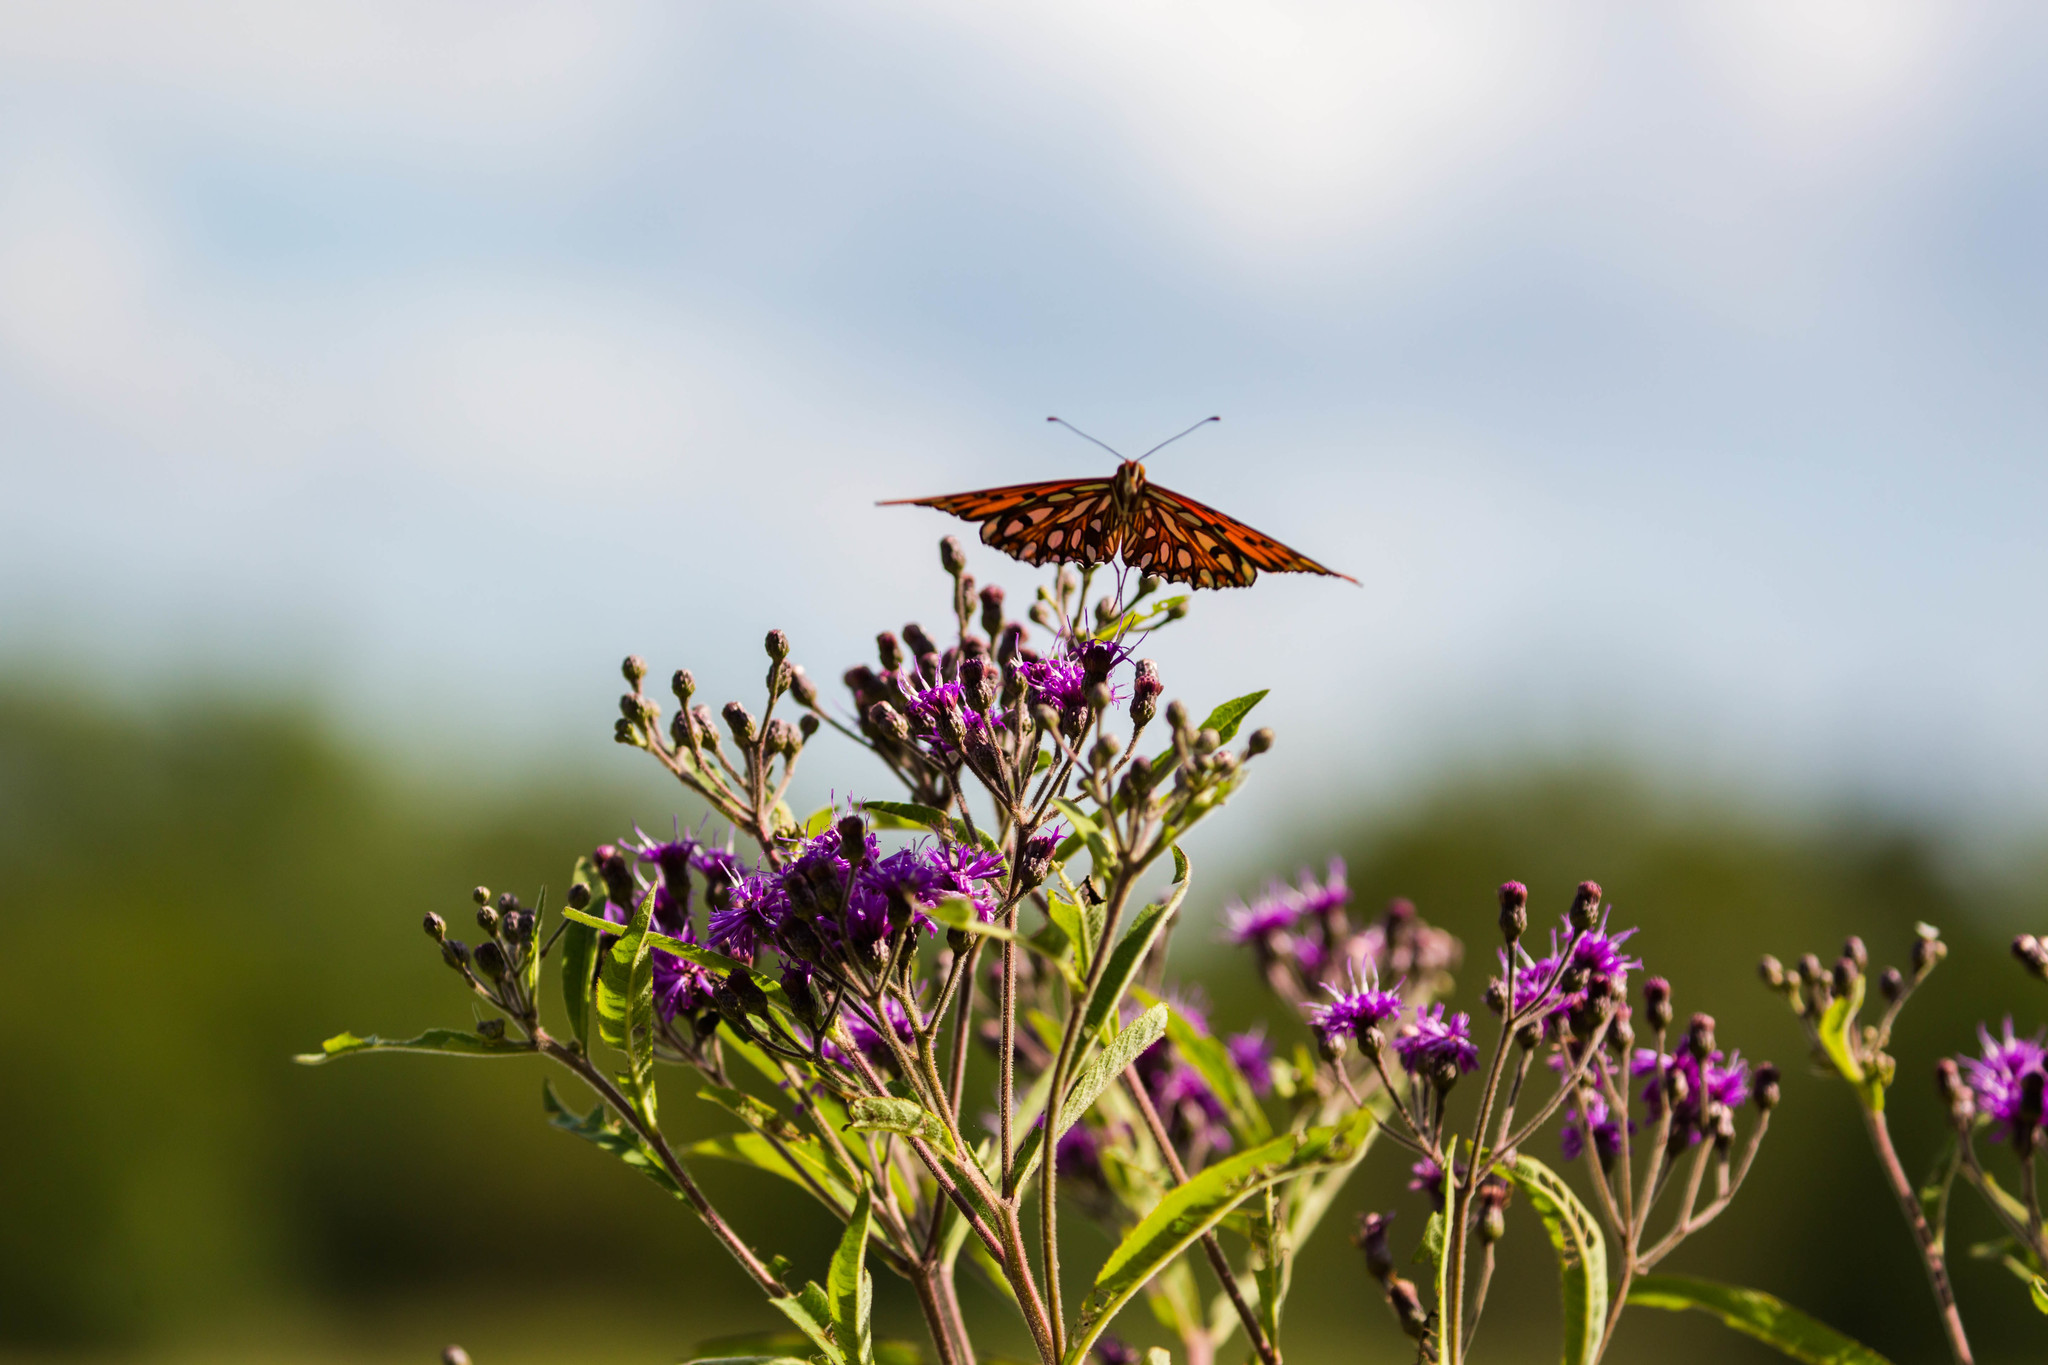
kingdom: Animalia
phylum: Arthropoda
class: Insecta
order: Lepidoptera
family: Nymphalidae
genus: Dione
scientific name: Dione vanillae
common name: Gulf fritillary
